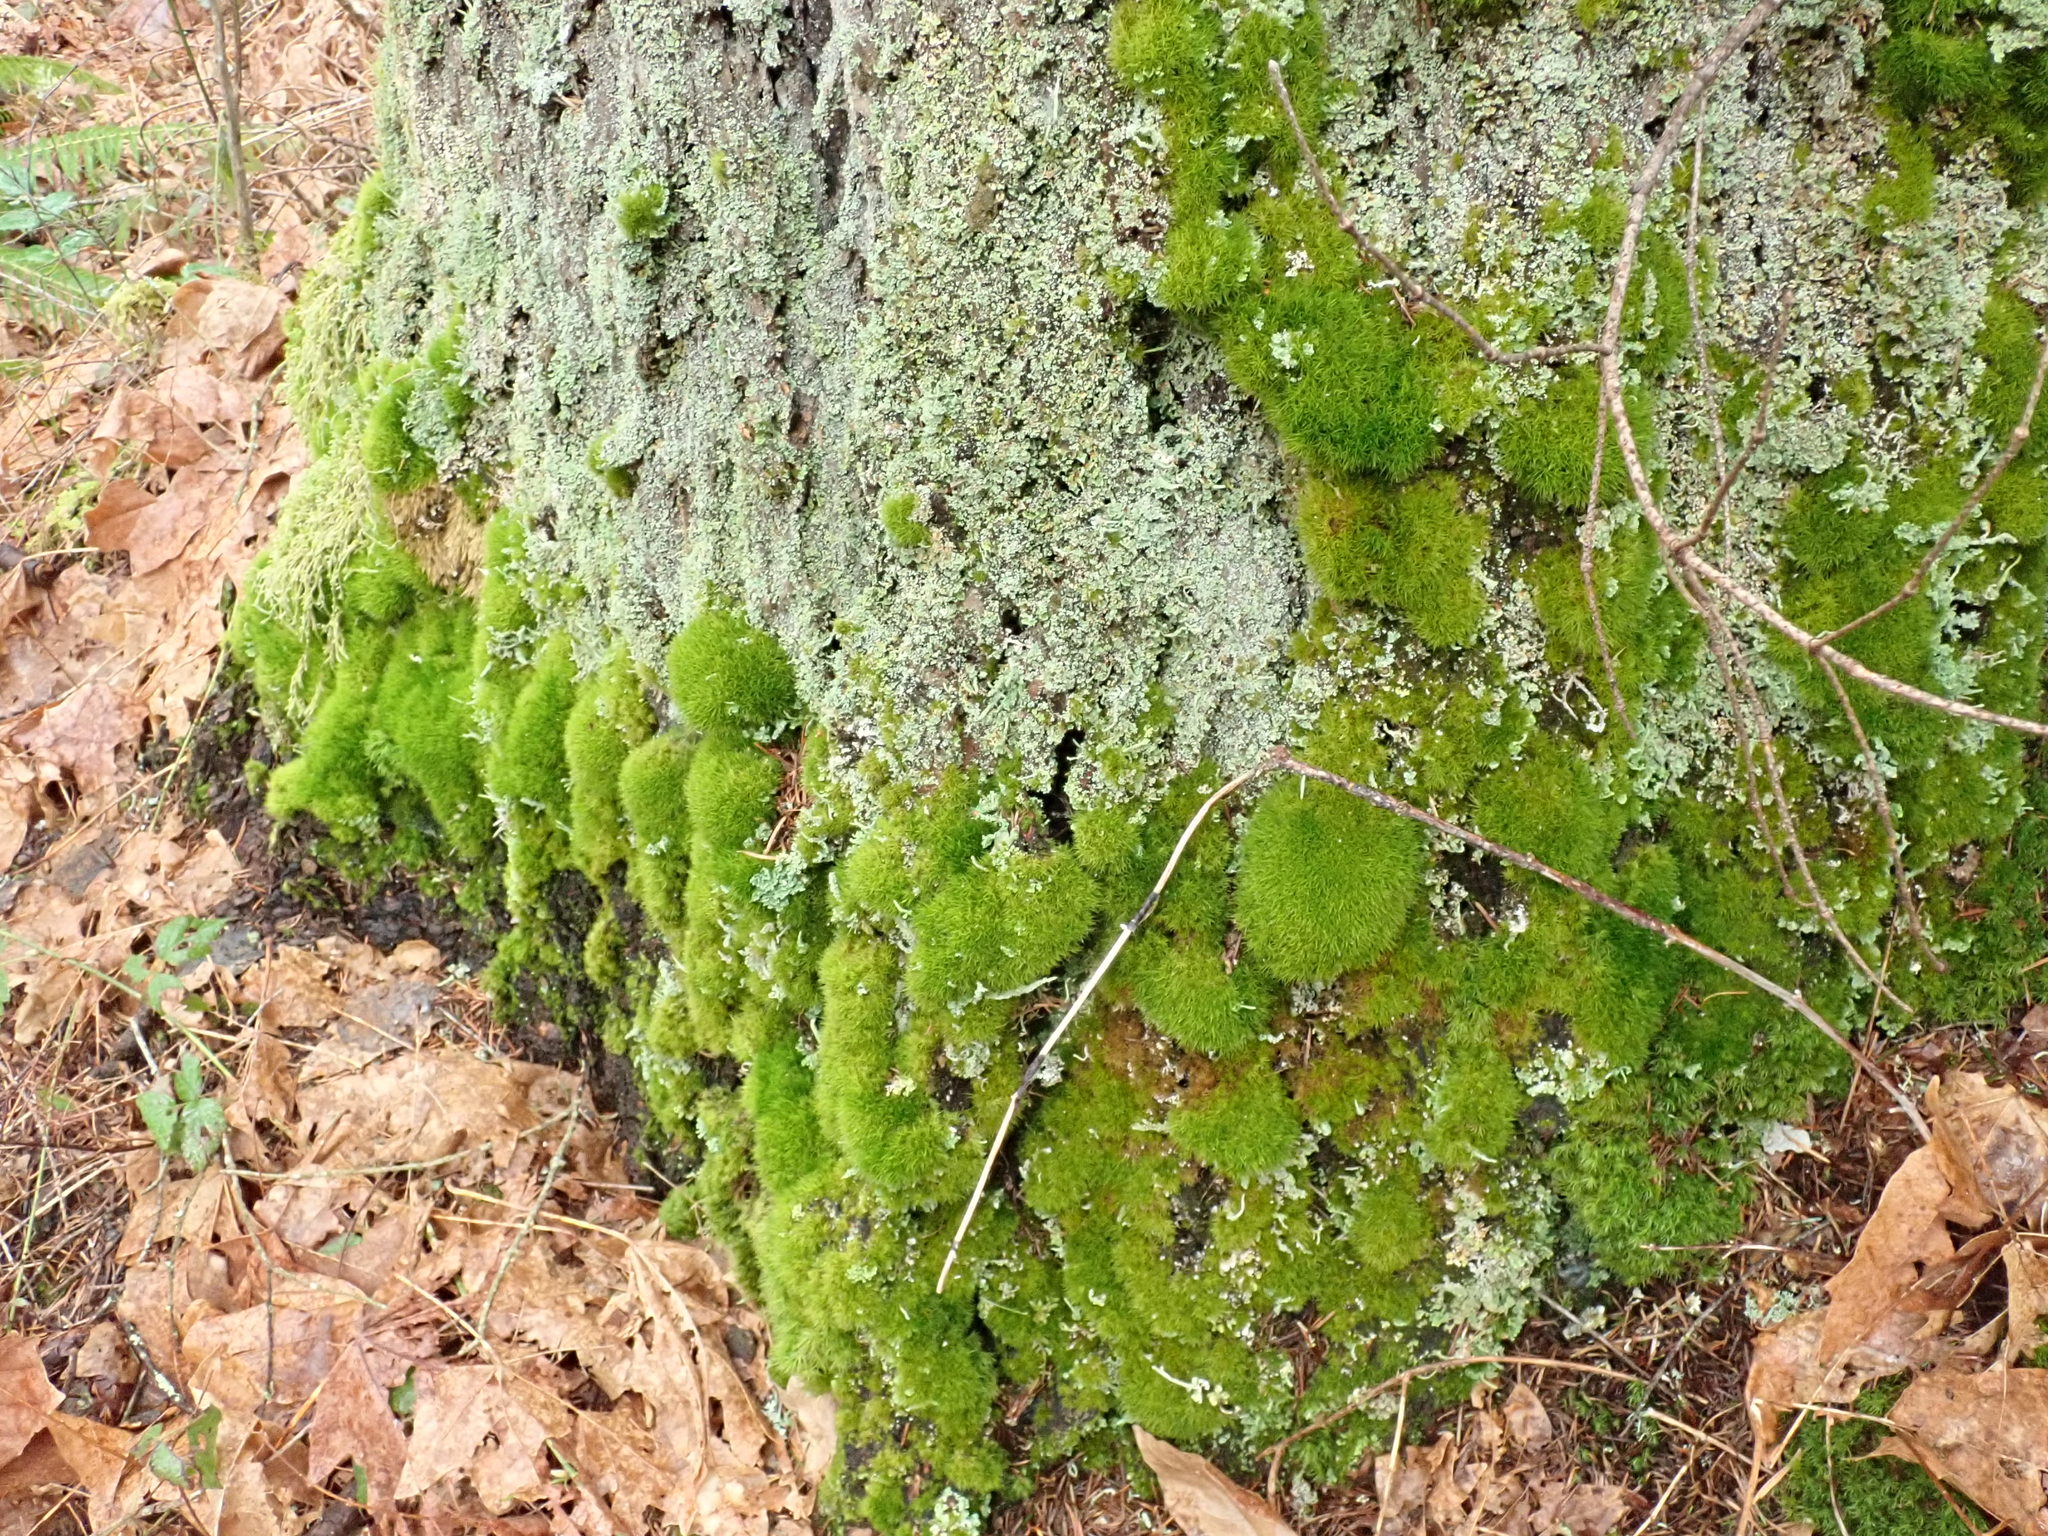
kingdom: Plantae
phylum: Bryophyta
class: Bryopsida
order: Dicranales
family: Dicranaceae
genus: Orthodicranum
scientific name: Orthodicranum tauricum
